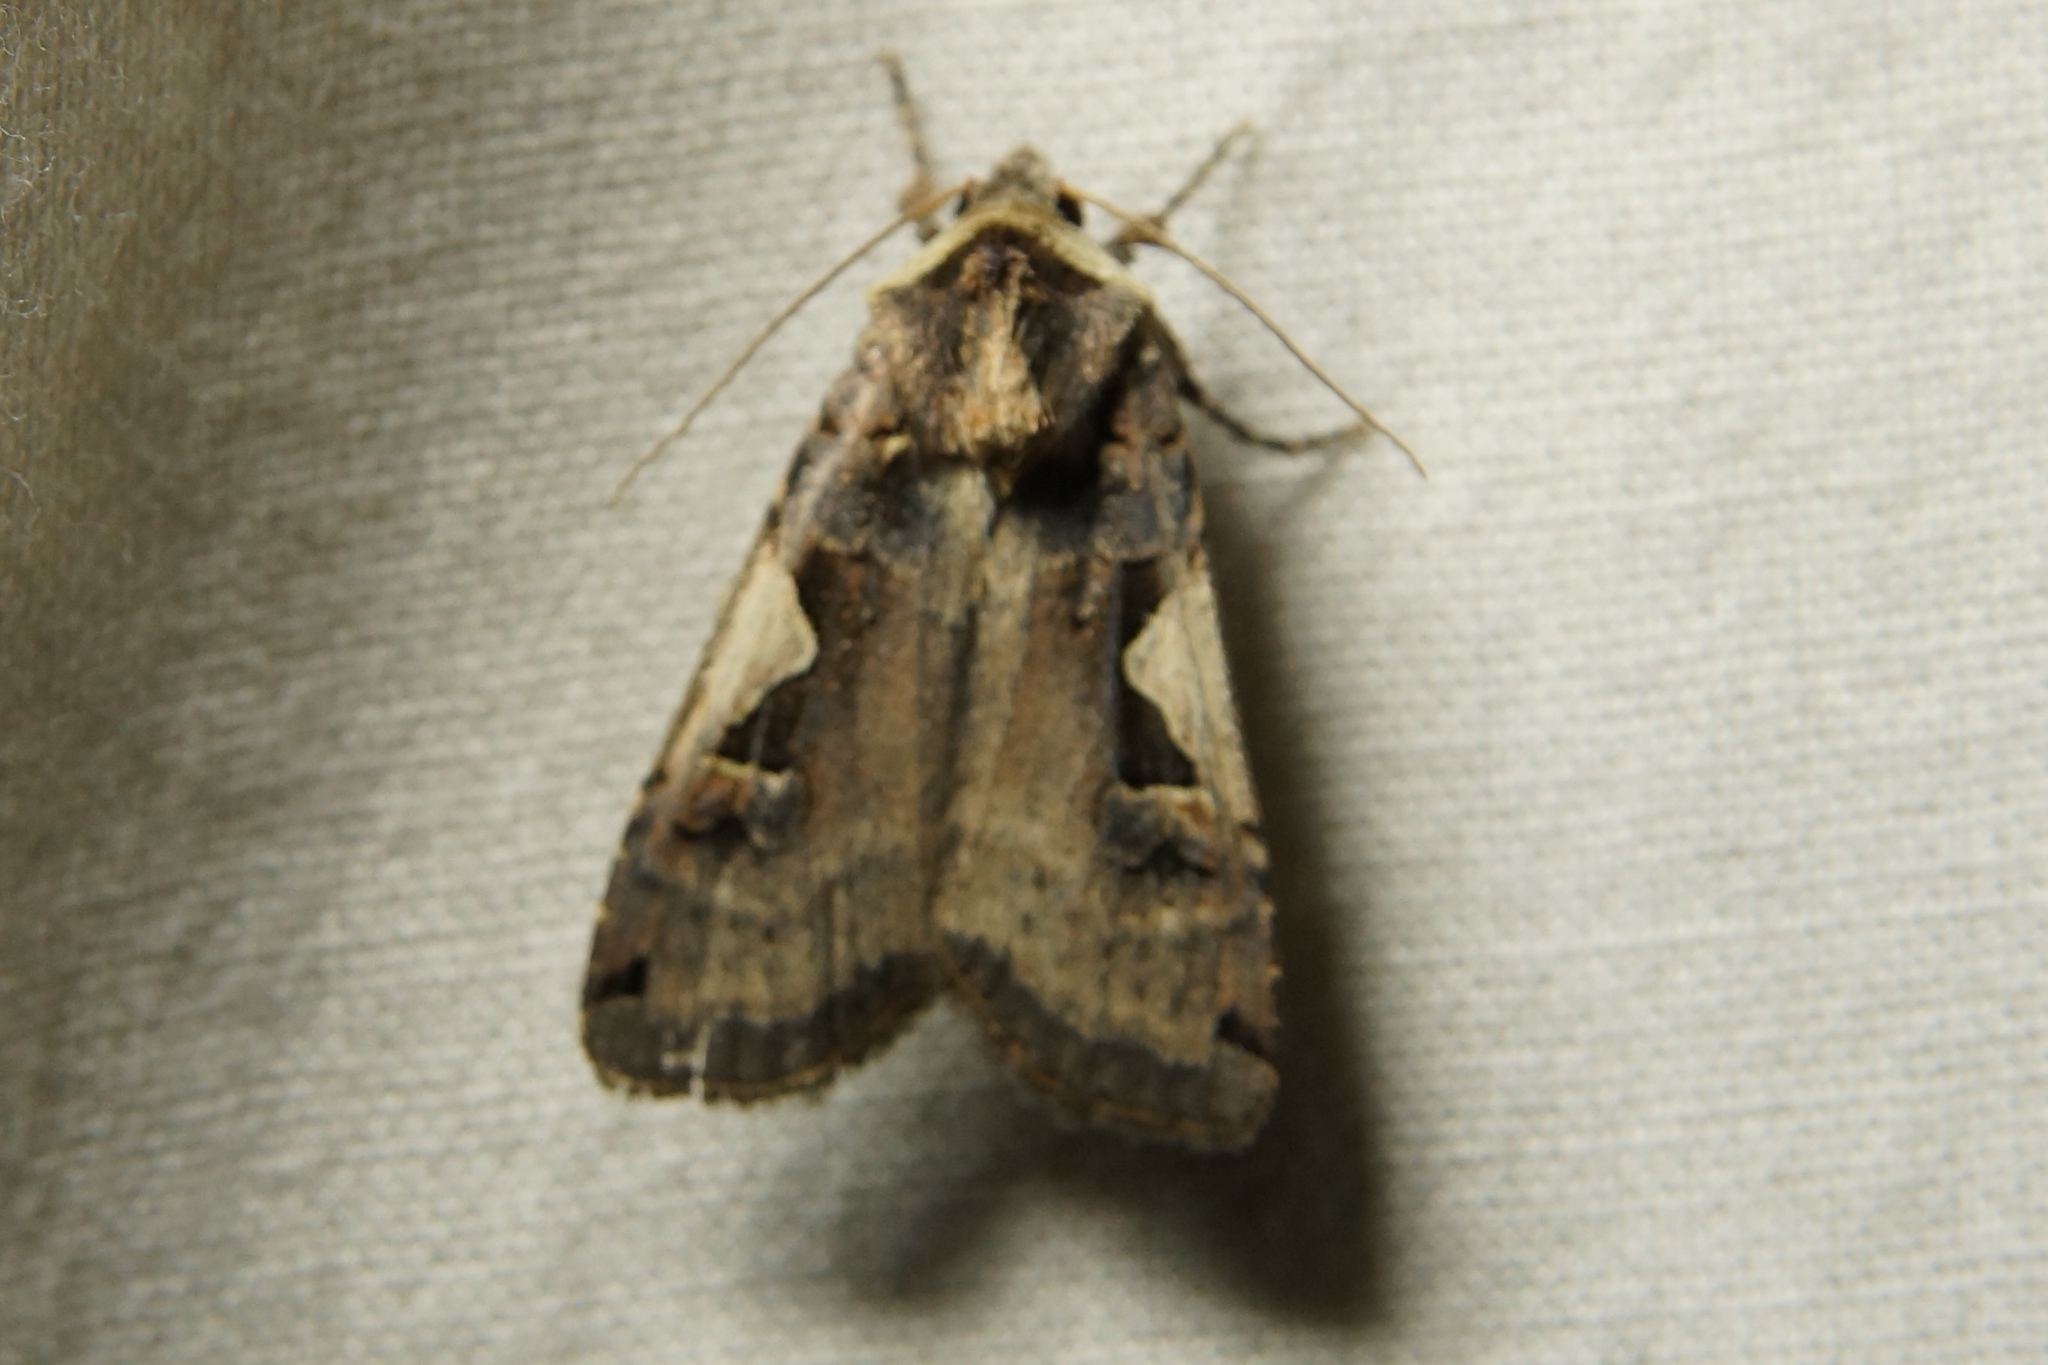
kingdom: Animalia
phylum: Arthropoda
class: Insecta
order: Lepidoptera
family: Noctuidae
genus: Xestia
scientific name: Xestia c-nigrum
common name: Setaceous hebrew character
